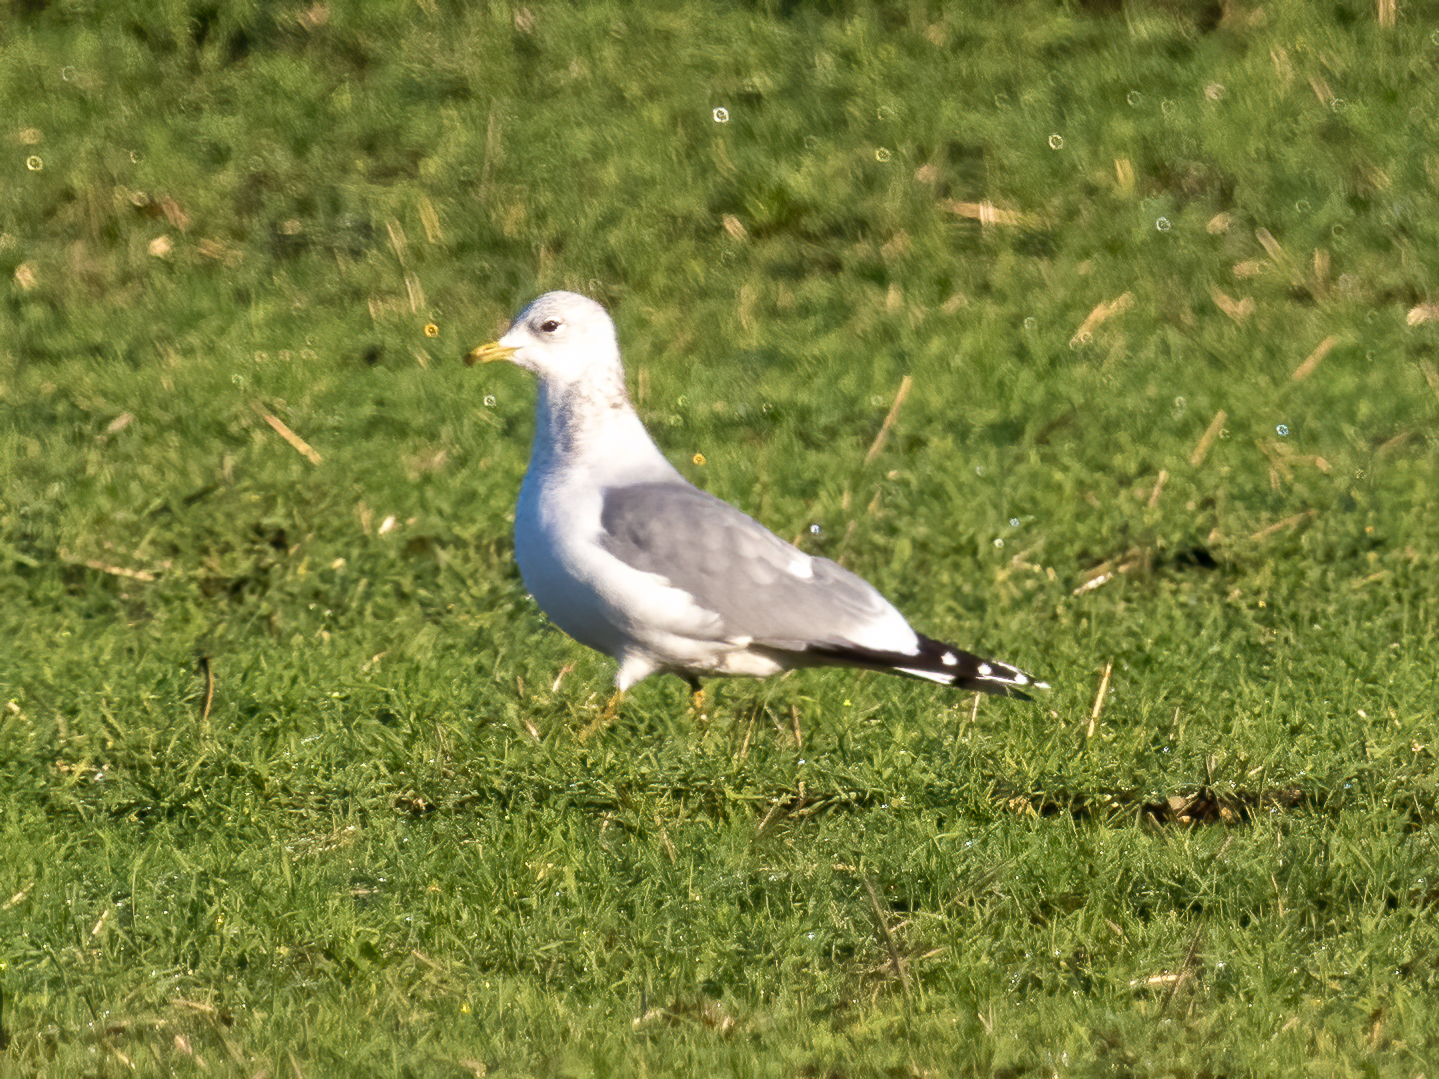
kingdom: Animalia
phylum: Chordata
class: Aves
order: Charadriiformes
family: Laridae
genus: Larus
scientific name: Larus canus
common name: Mew gull
